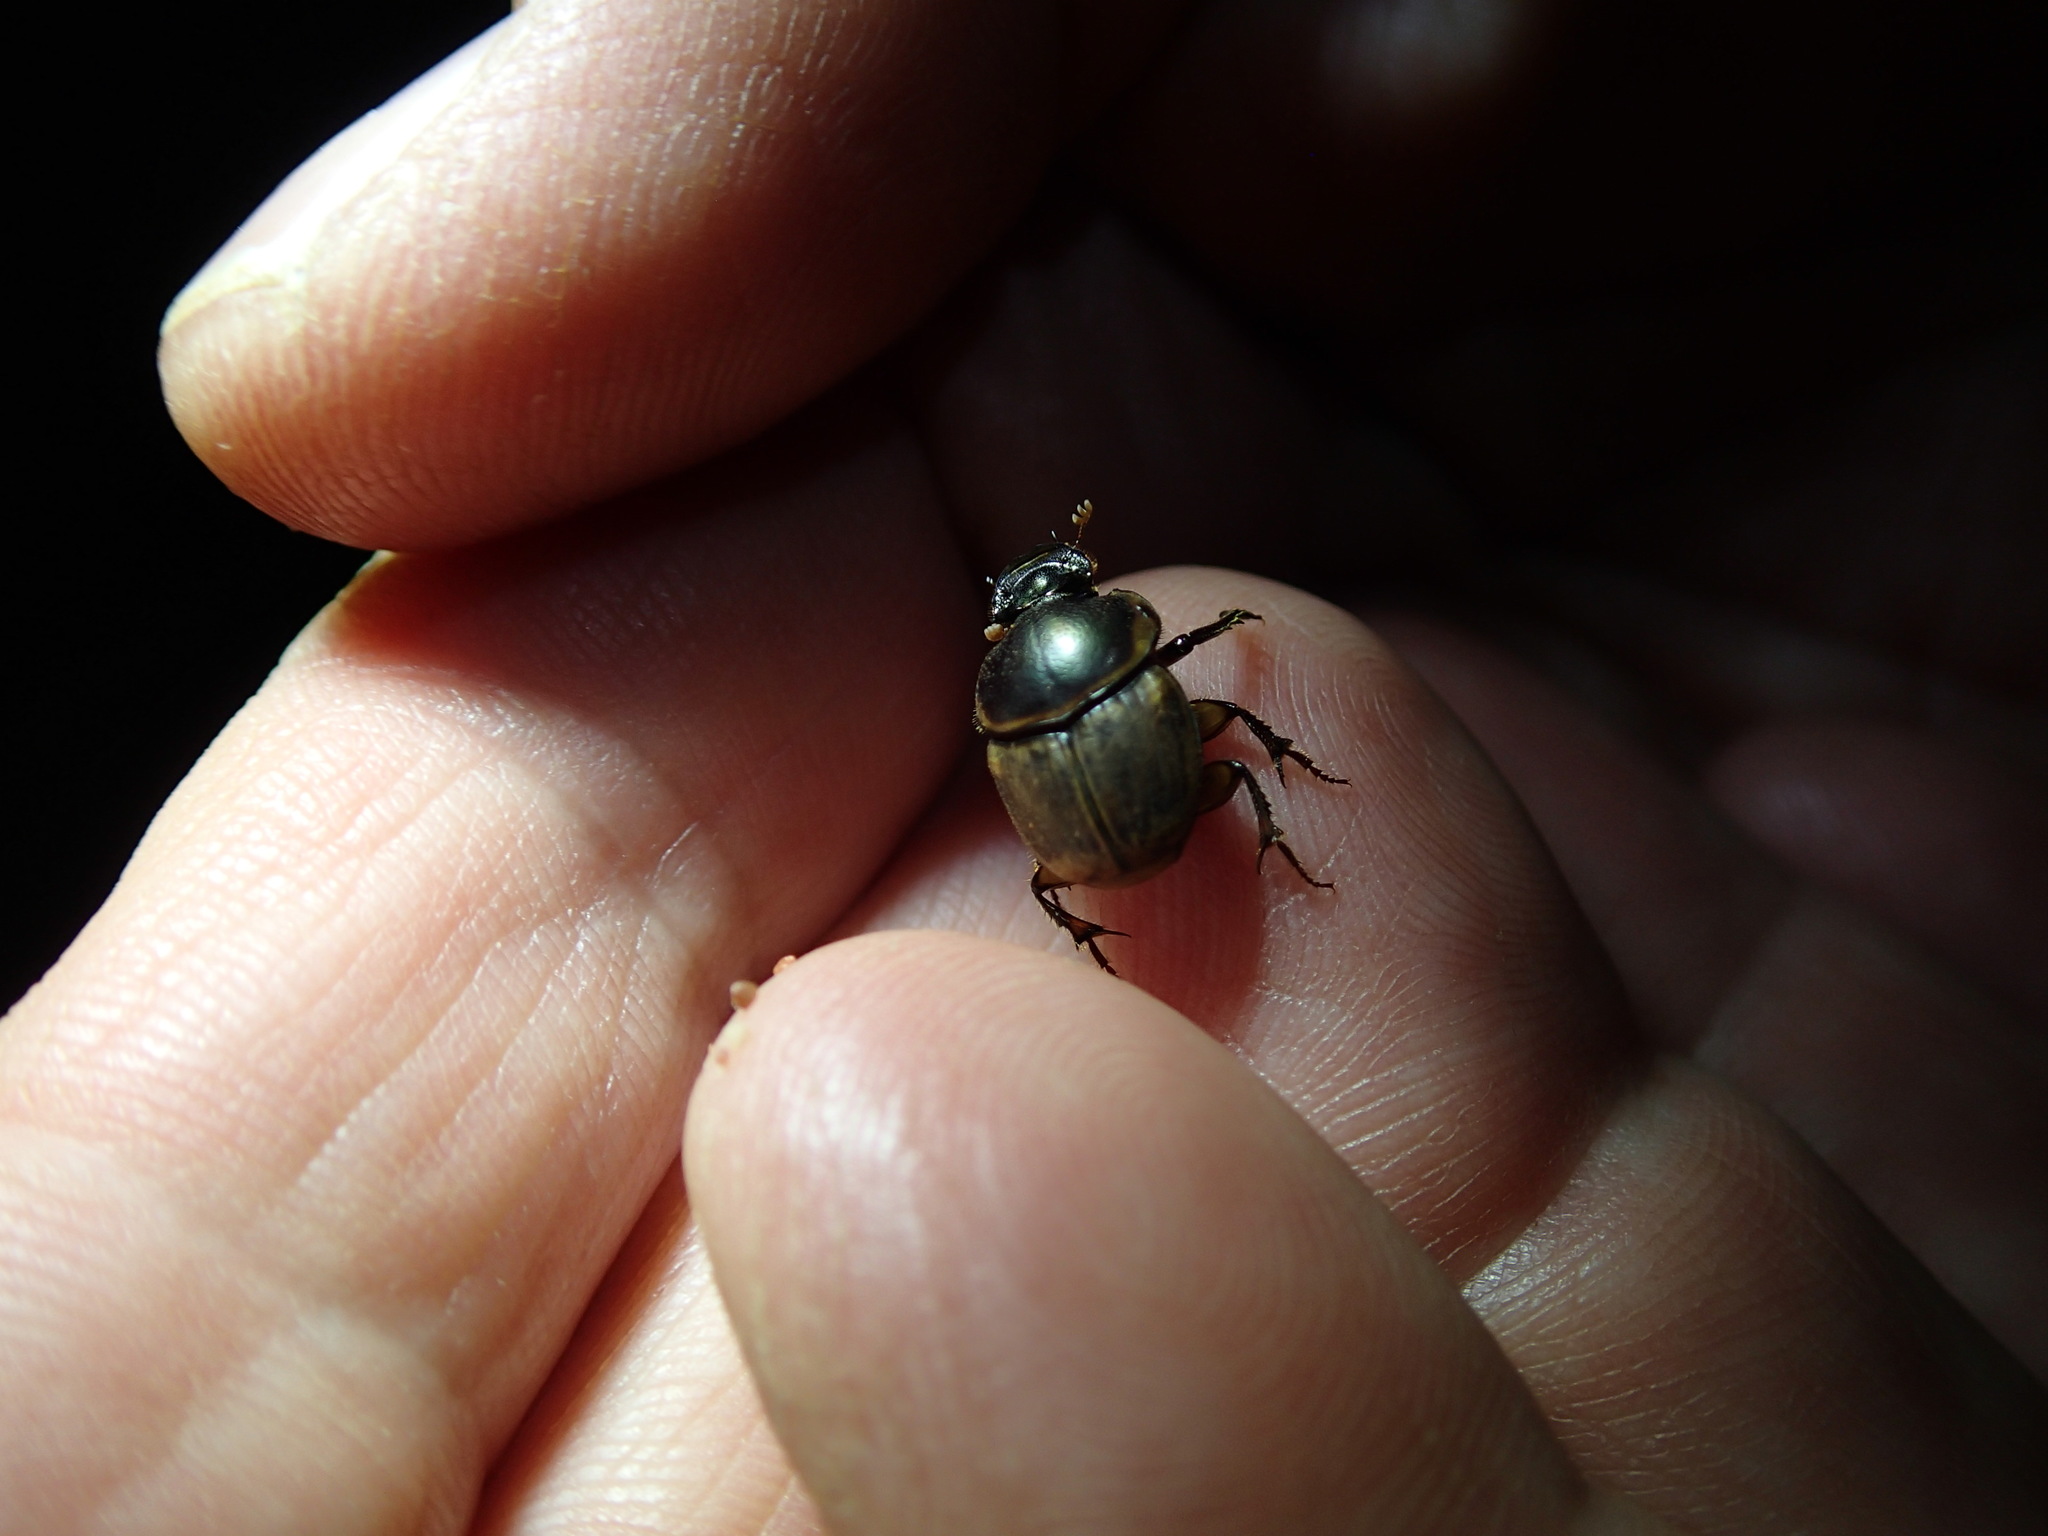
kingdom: Animalia
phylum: Arthropoda
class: Insecta
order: Coleoptera
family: Scarabaeidae
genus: Digitonthophagus
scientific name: Digitonthophagus gazella
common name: Brown dung beetle
